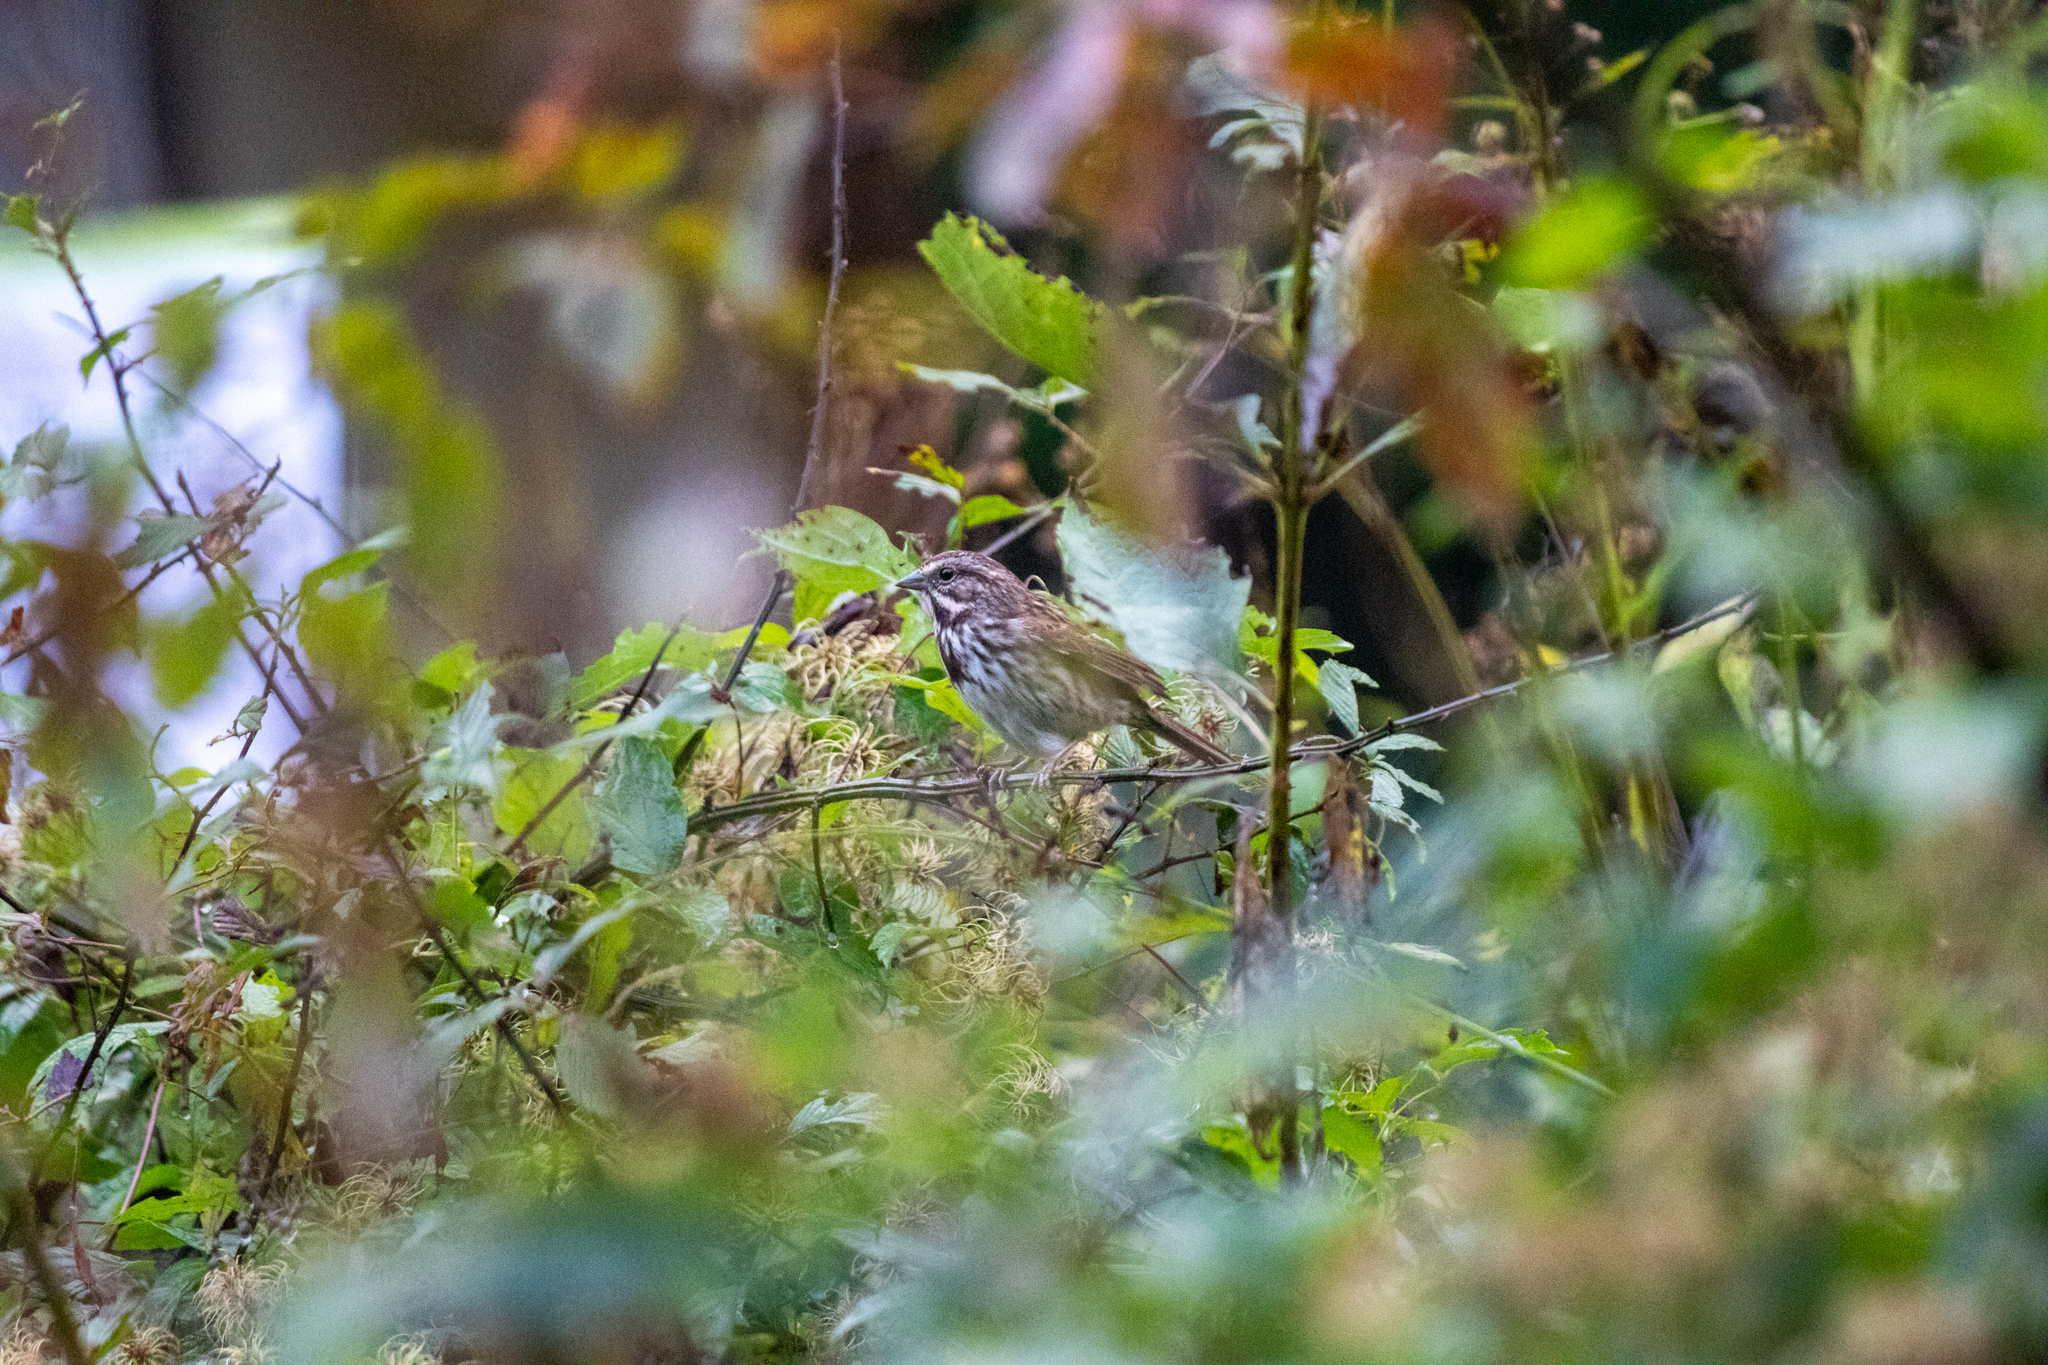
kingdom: Animalia
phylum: Chordata
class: Aves
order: Passeriformes
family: Passerellidae
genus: Melospiza
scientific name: Melospiza melodia
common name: Song sparrow
